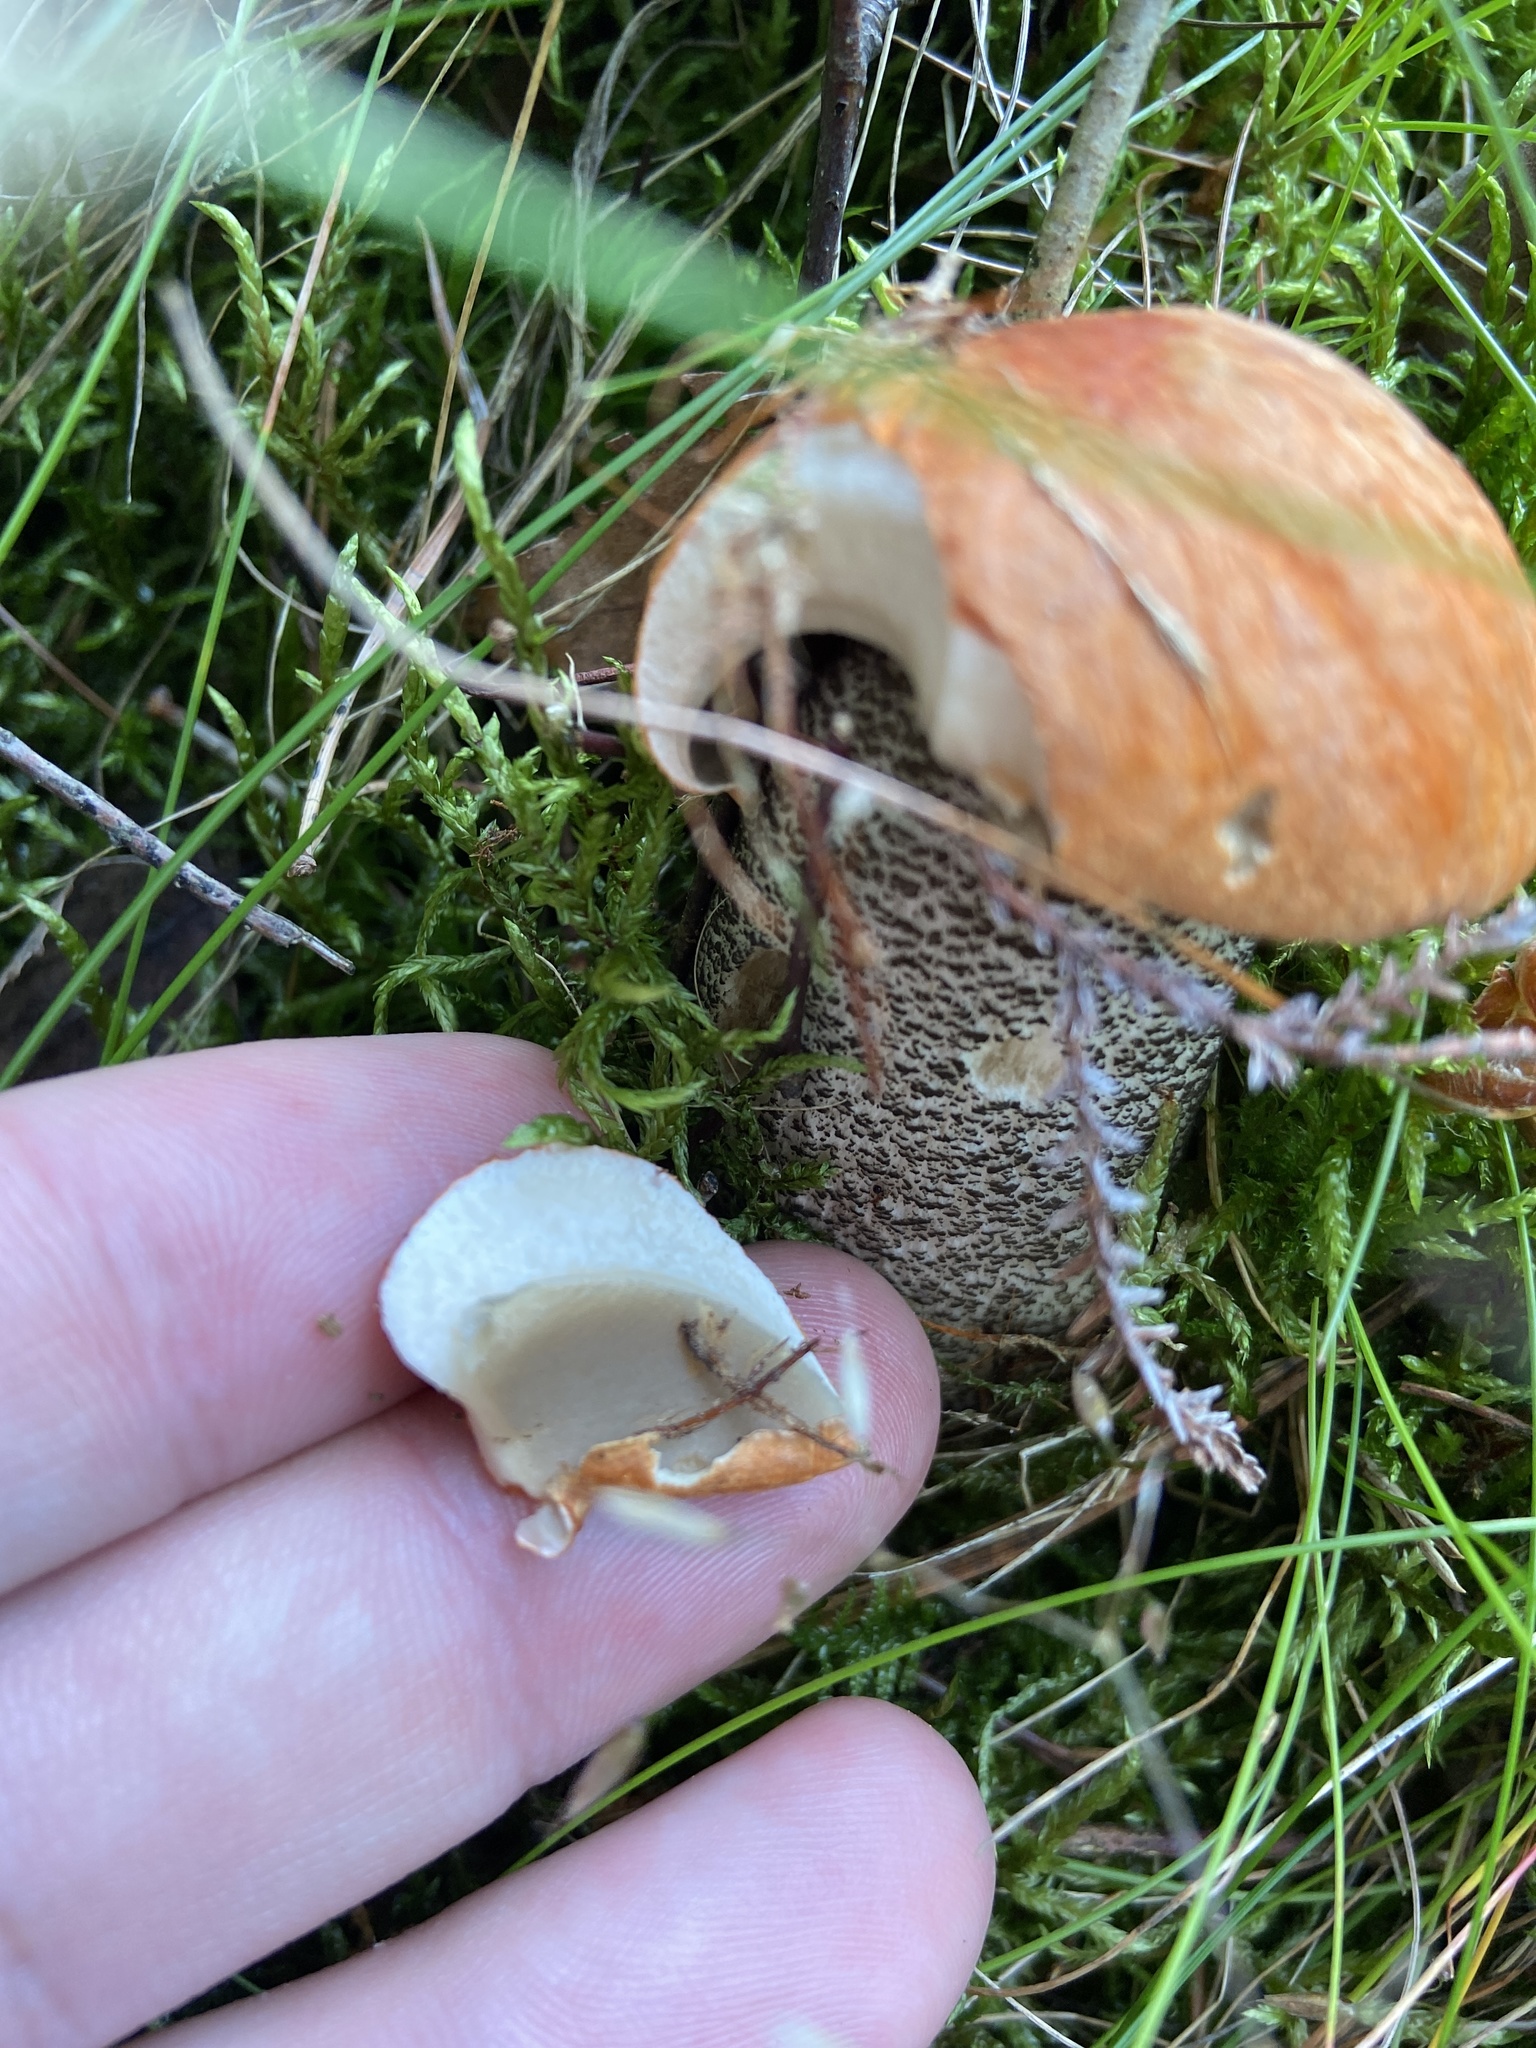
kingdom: Fungi
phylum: Basidiomycota
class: Agaricomycetes
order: Boletales
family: Boletaceae
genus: Leccinum
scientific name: Leccinum versipelle
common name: Orange birch bolete
